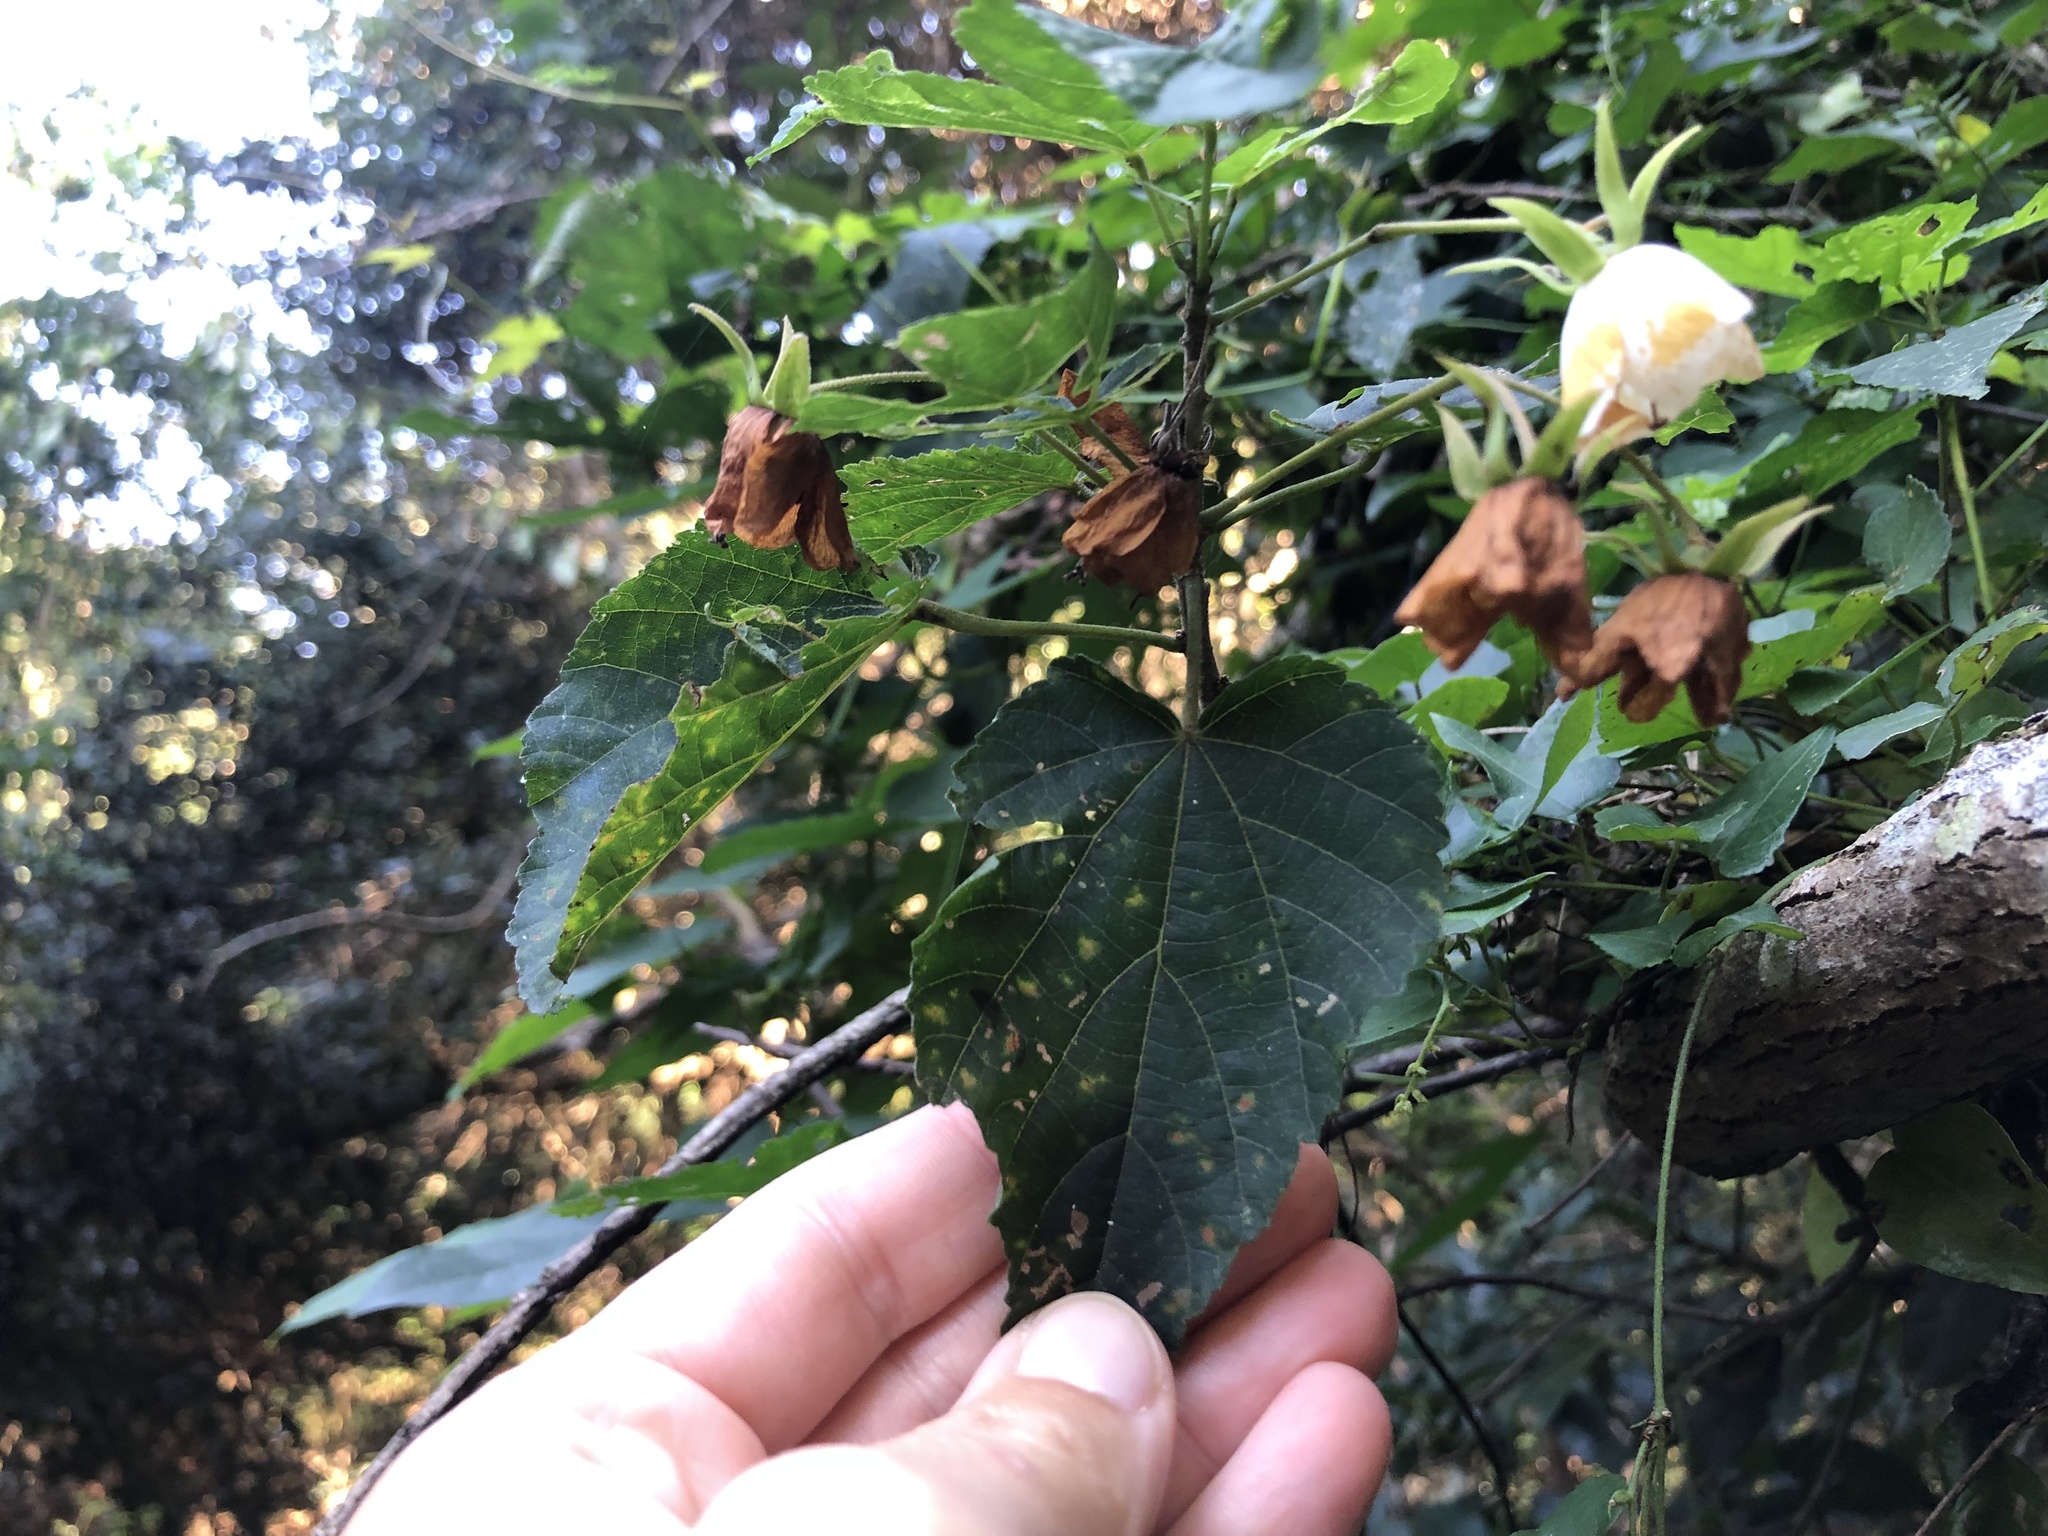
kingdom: Plantae
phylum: Tracheophyta
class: Magnoliopsida
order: Malvales
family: Malvaceae
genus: Dombeya
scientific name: Dombeya tiliacea
